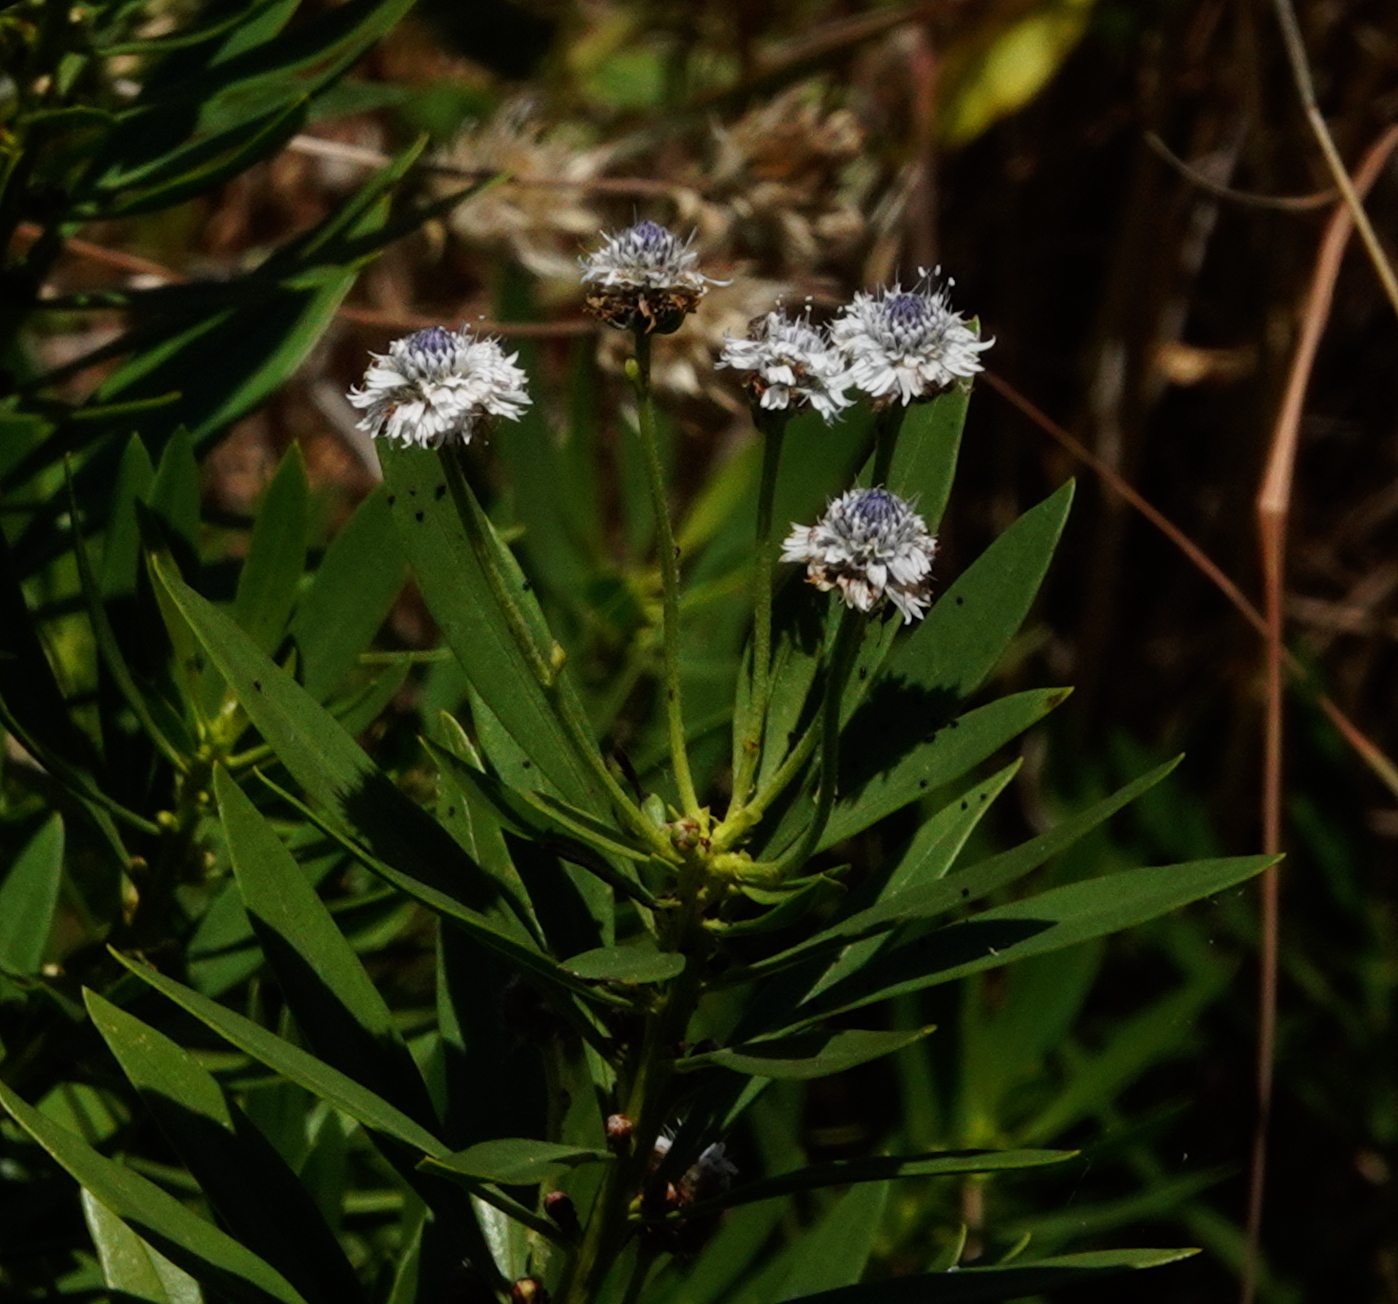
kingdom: Plantae
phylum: Tracheophyta
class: Magnoliopsida
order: Lamiales
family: Plantaginaceae
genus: Globularia
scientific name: Globularia salicina
